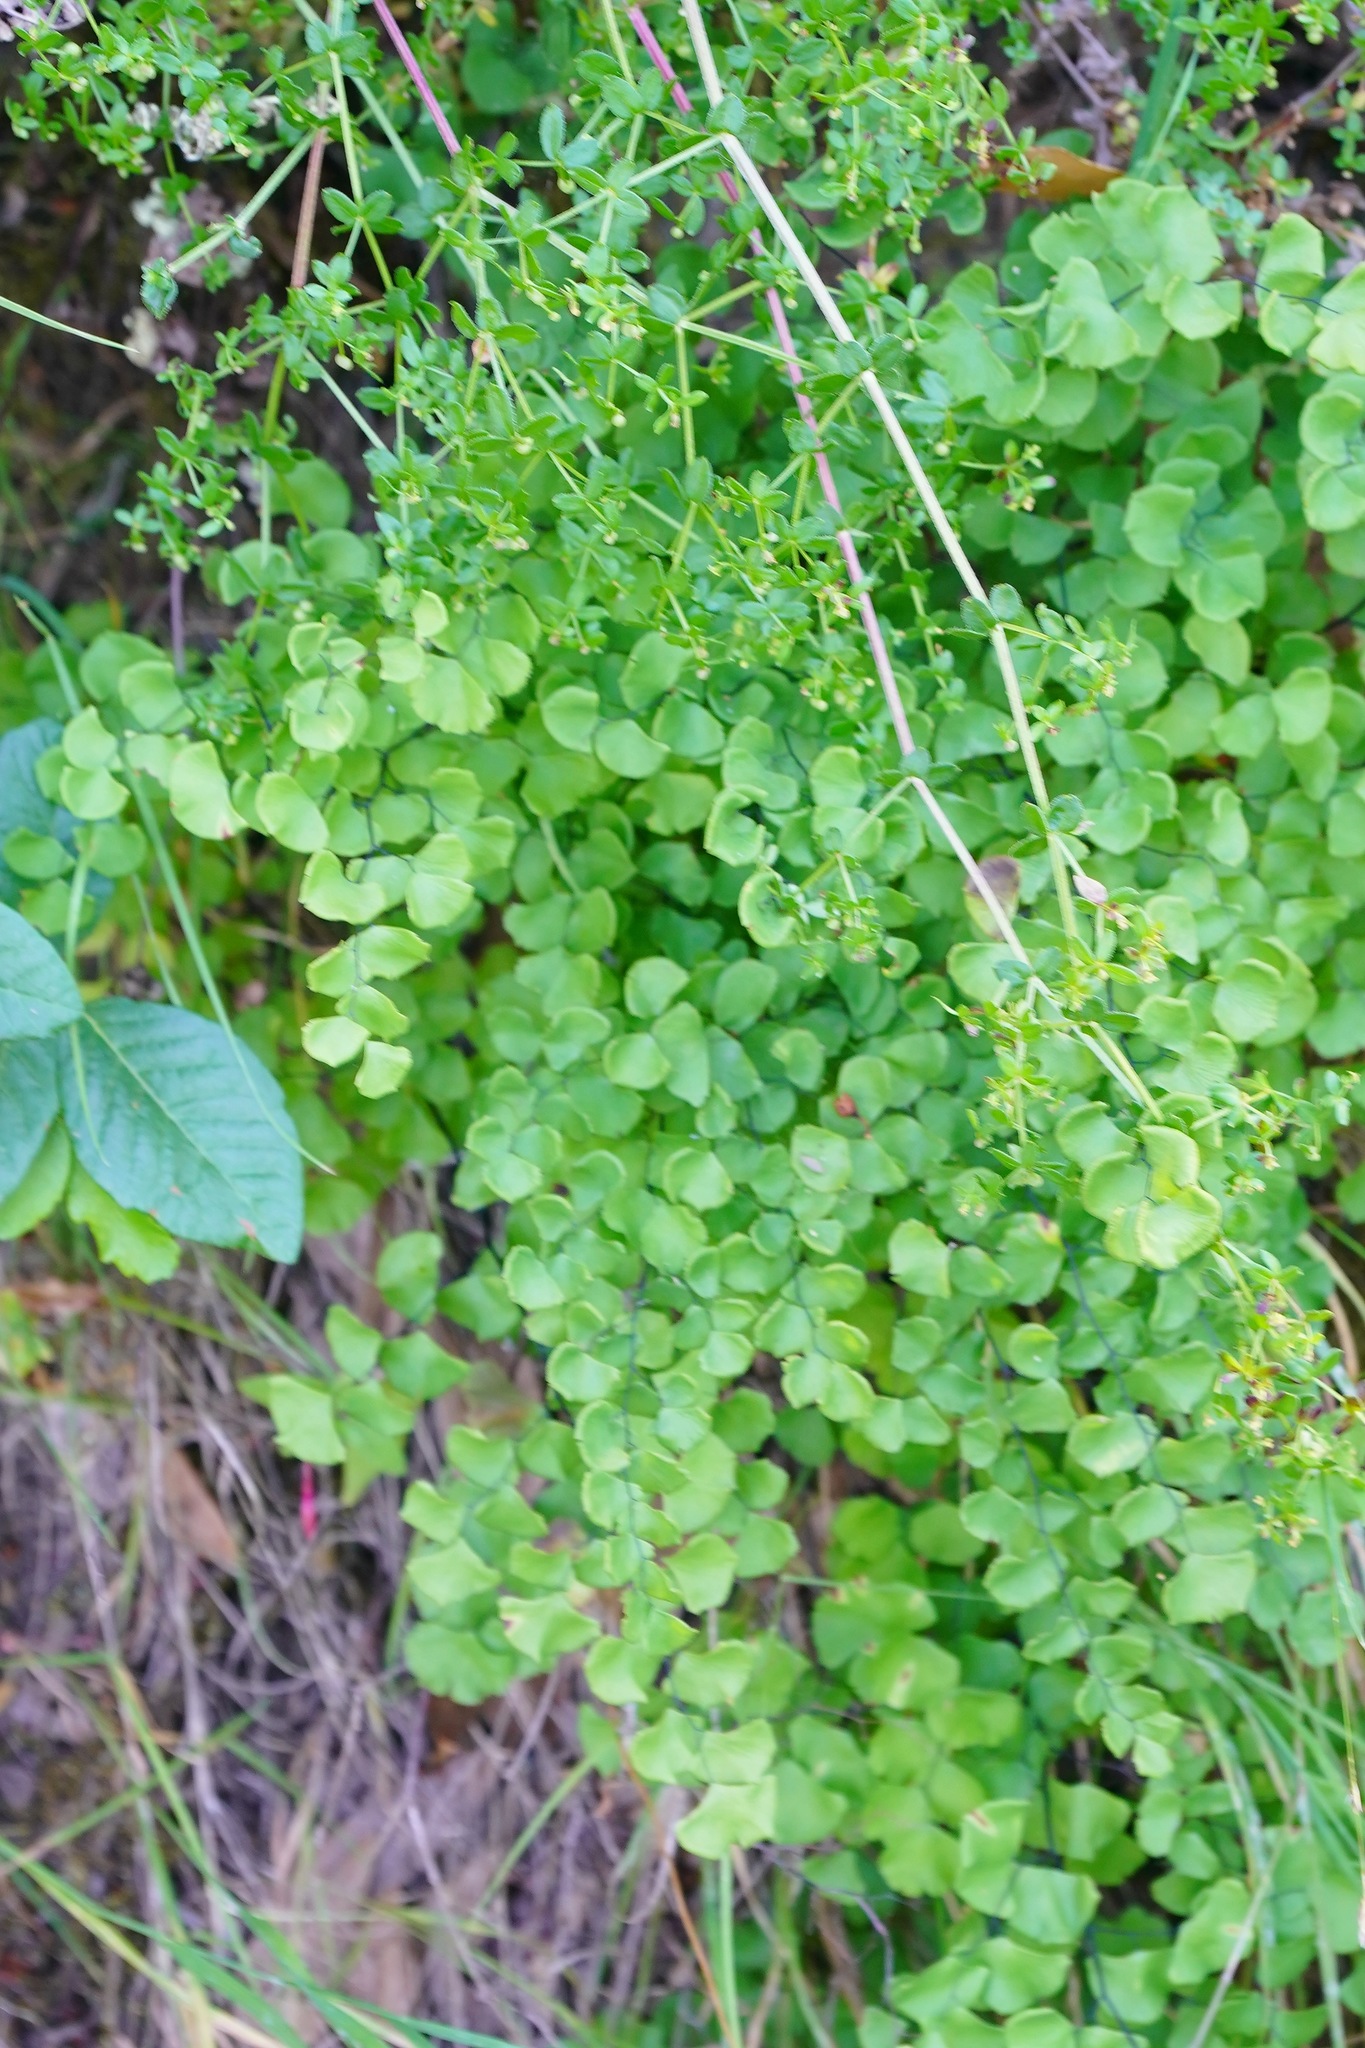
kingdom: Plantae
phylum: Tracheophyta
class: Polypodiopsida
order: Polypodiales
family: Pteridaceae
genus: Adiantum
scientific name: Adiantum jordanii
